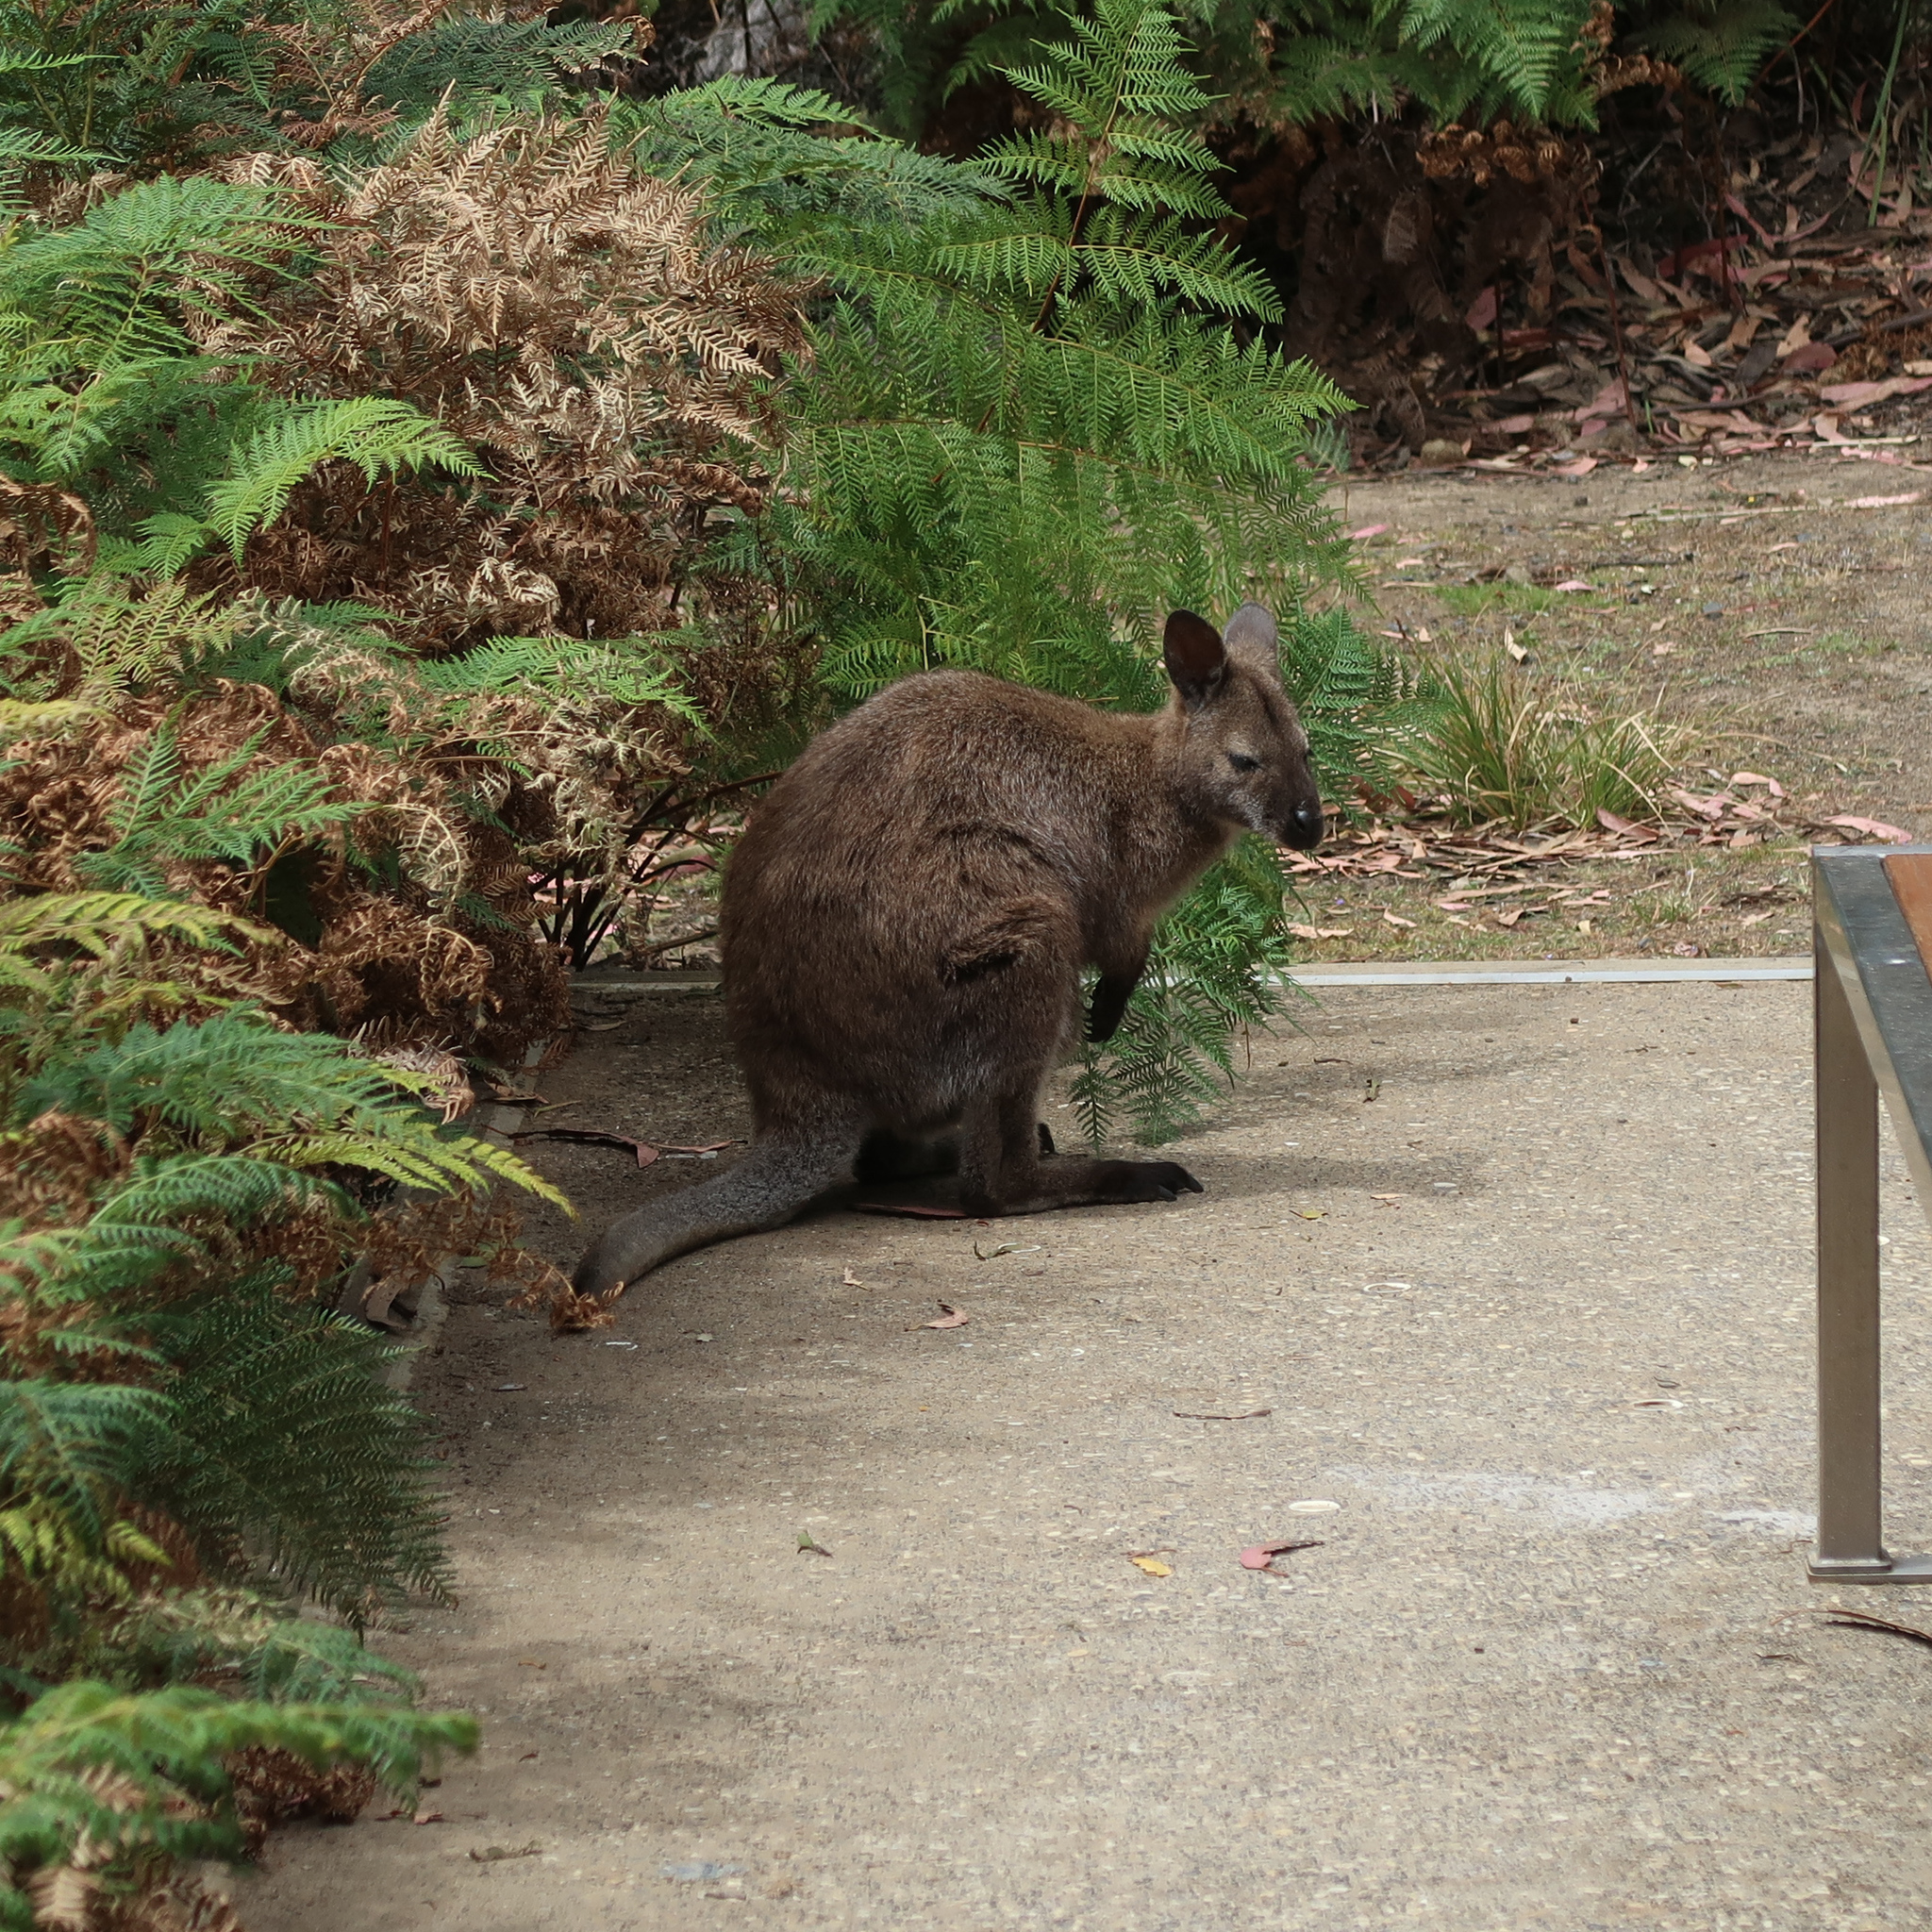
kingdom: Animalia
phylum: Chordata
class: Mammalia
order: Diprotodontia
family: Macropodidae
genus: Notamacropus
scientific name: Notamacropus rufogriseus
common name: Red-necked wallaby
